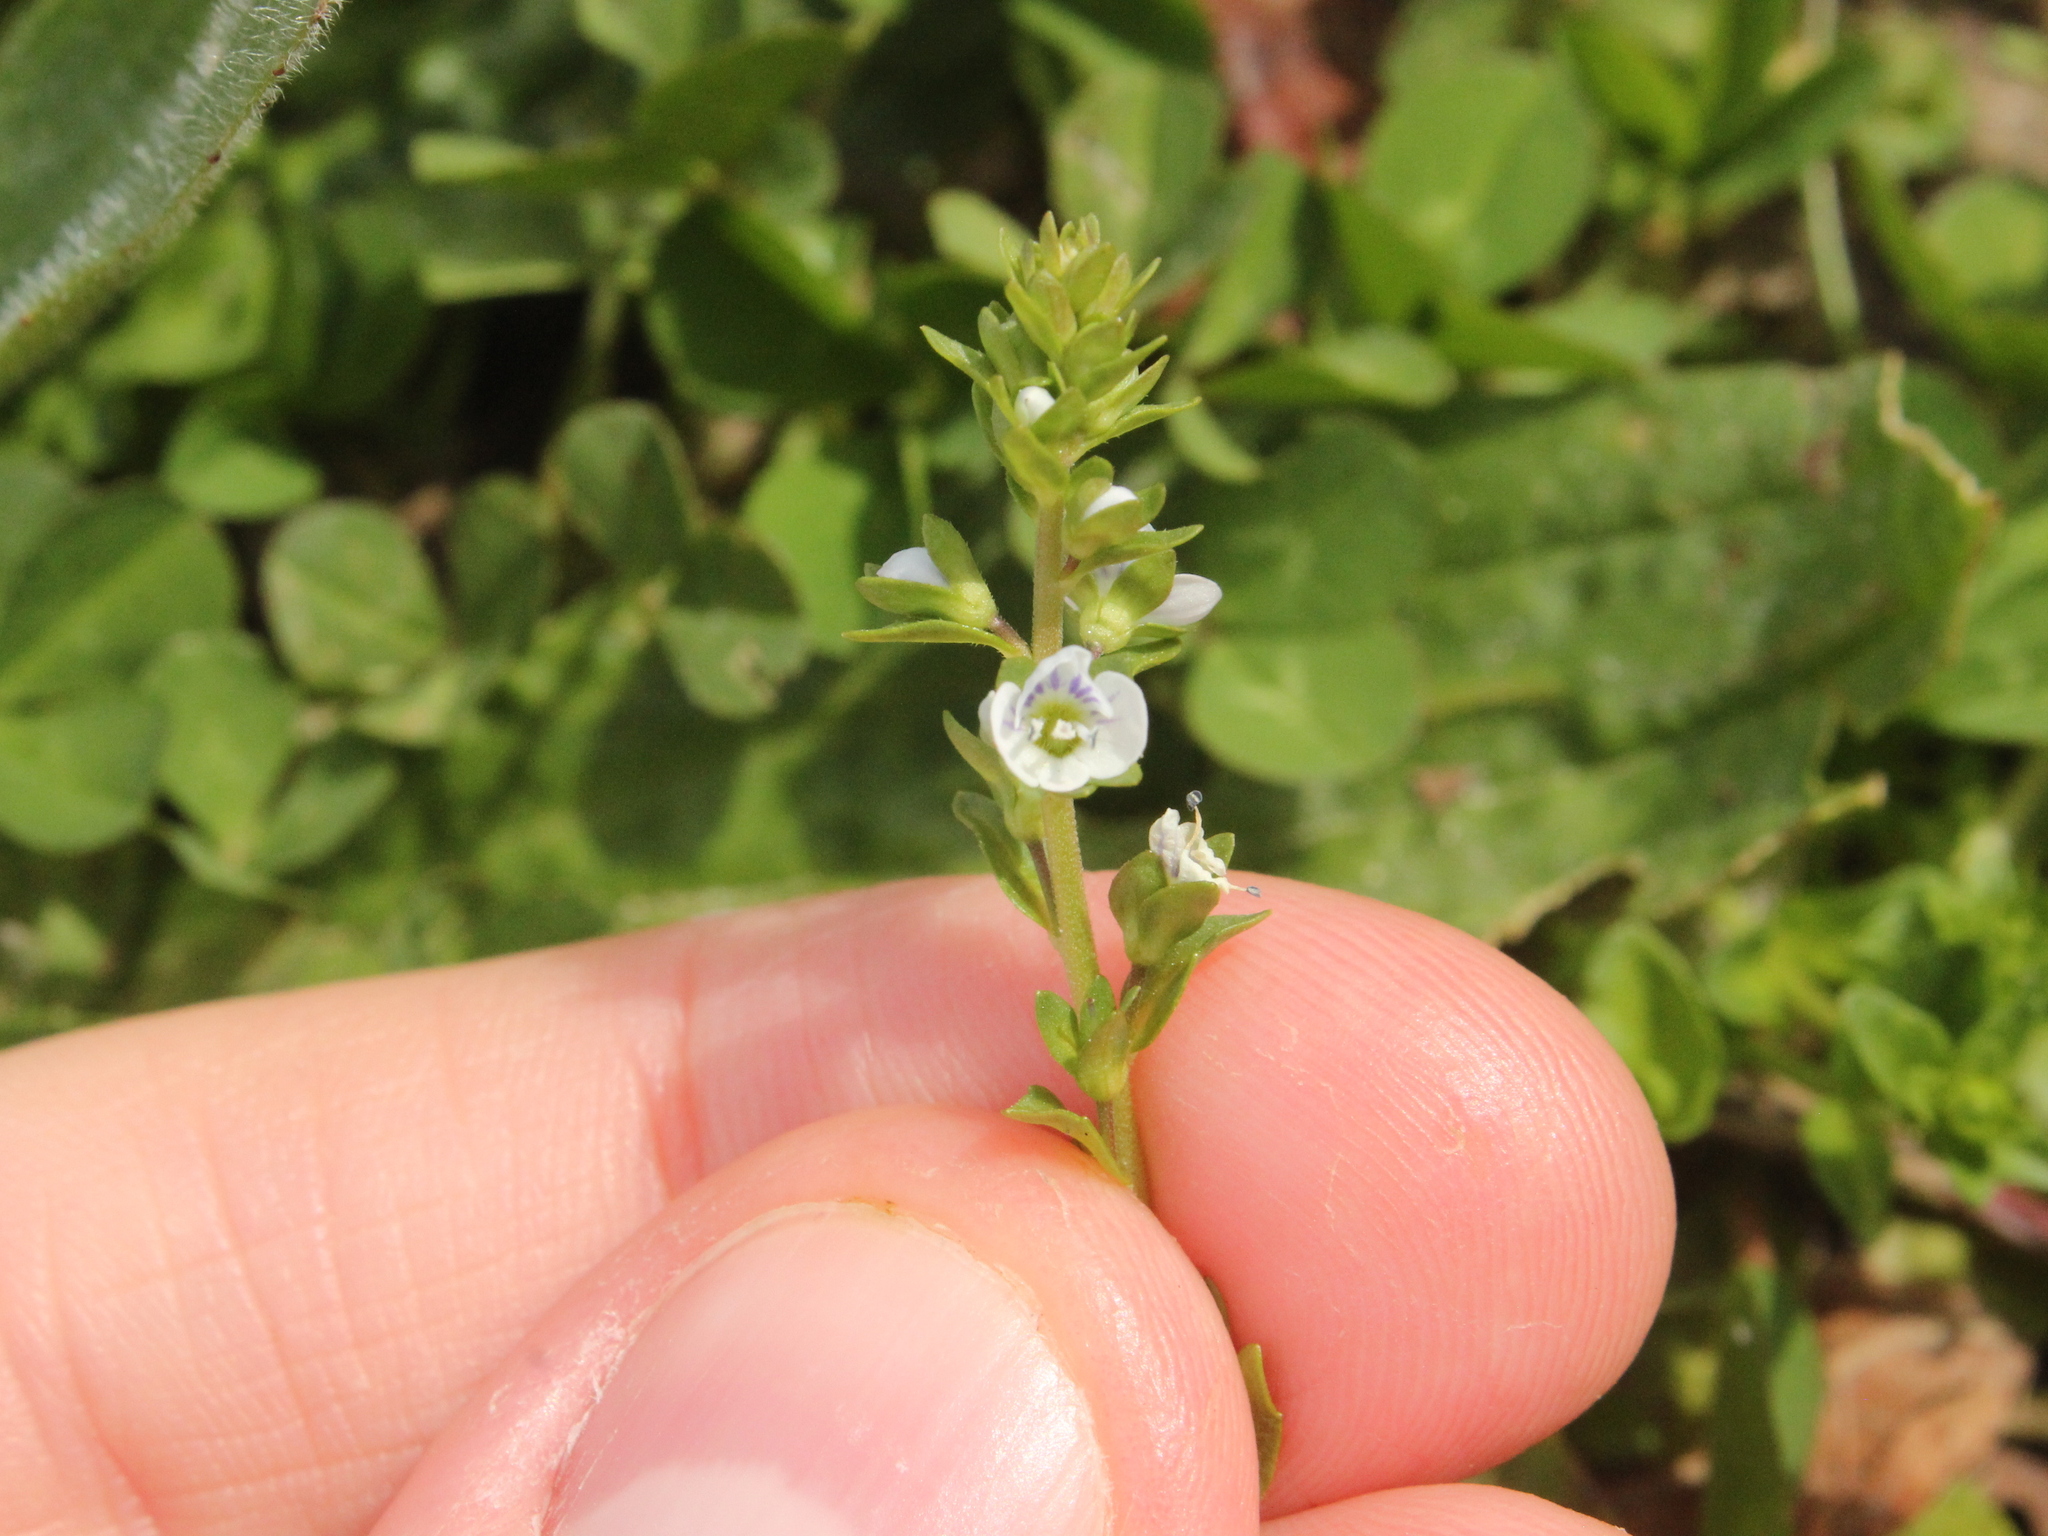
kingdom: Plantae
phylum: Tracheophyta
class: Magnoliopsida
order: Lamiales
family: Plantaginaceae
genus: Veronica
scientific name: Veronica serpyllifolia
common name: Thyme-leaved speedwell
